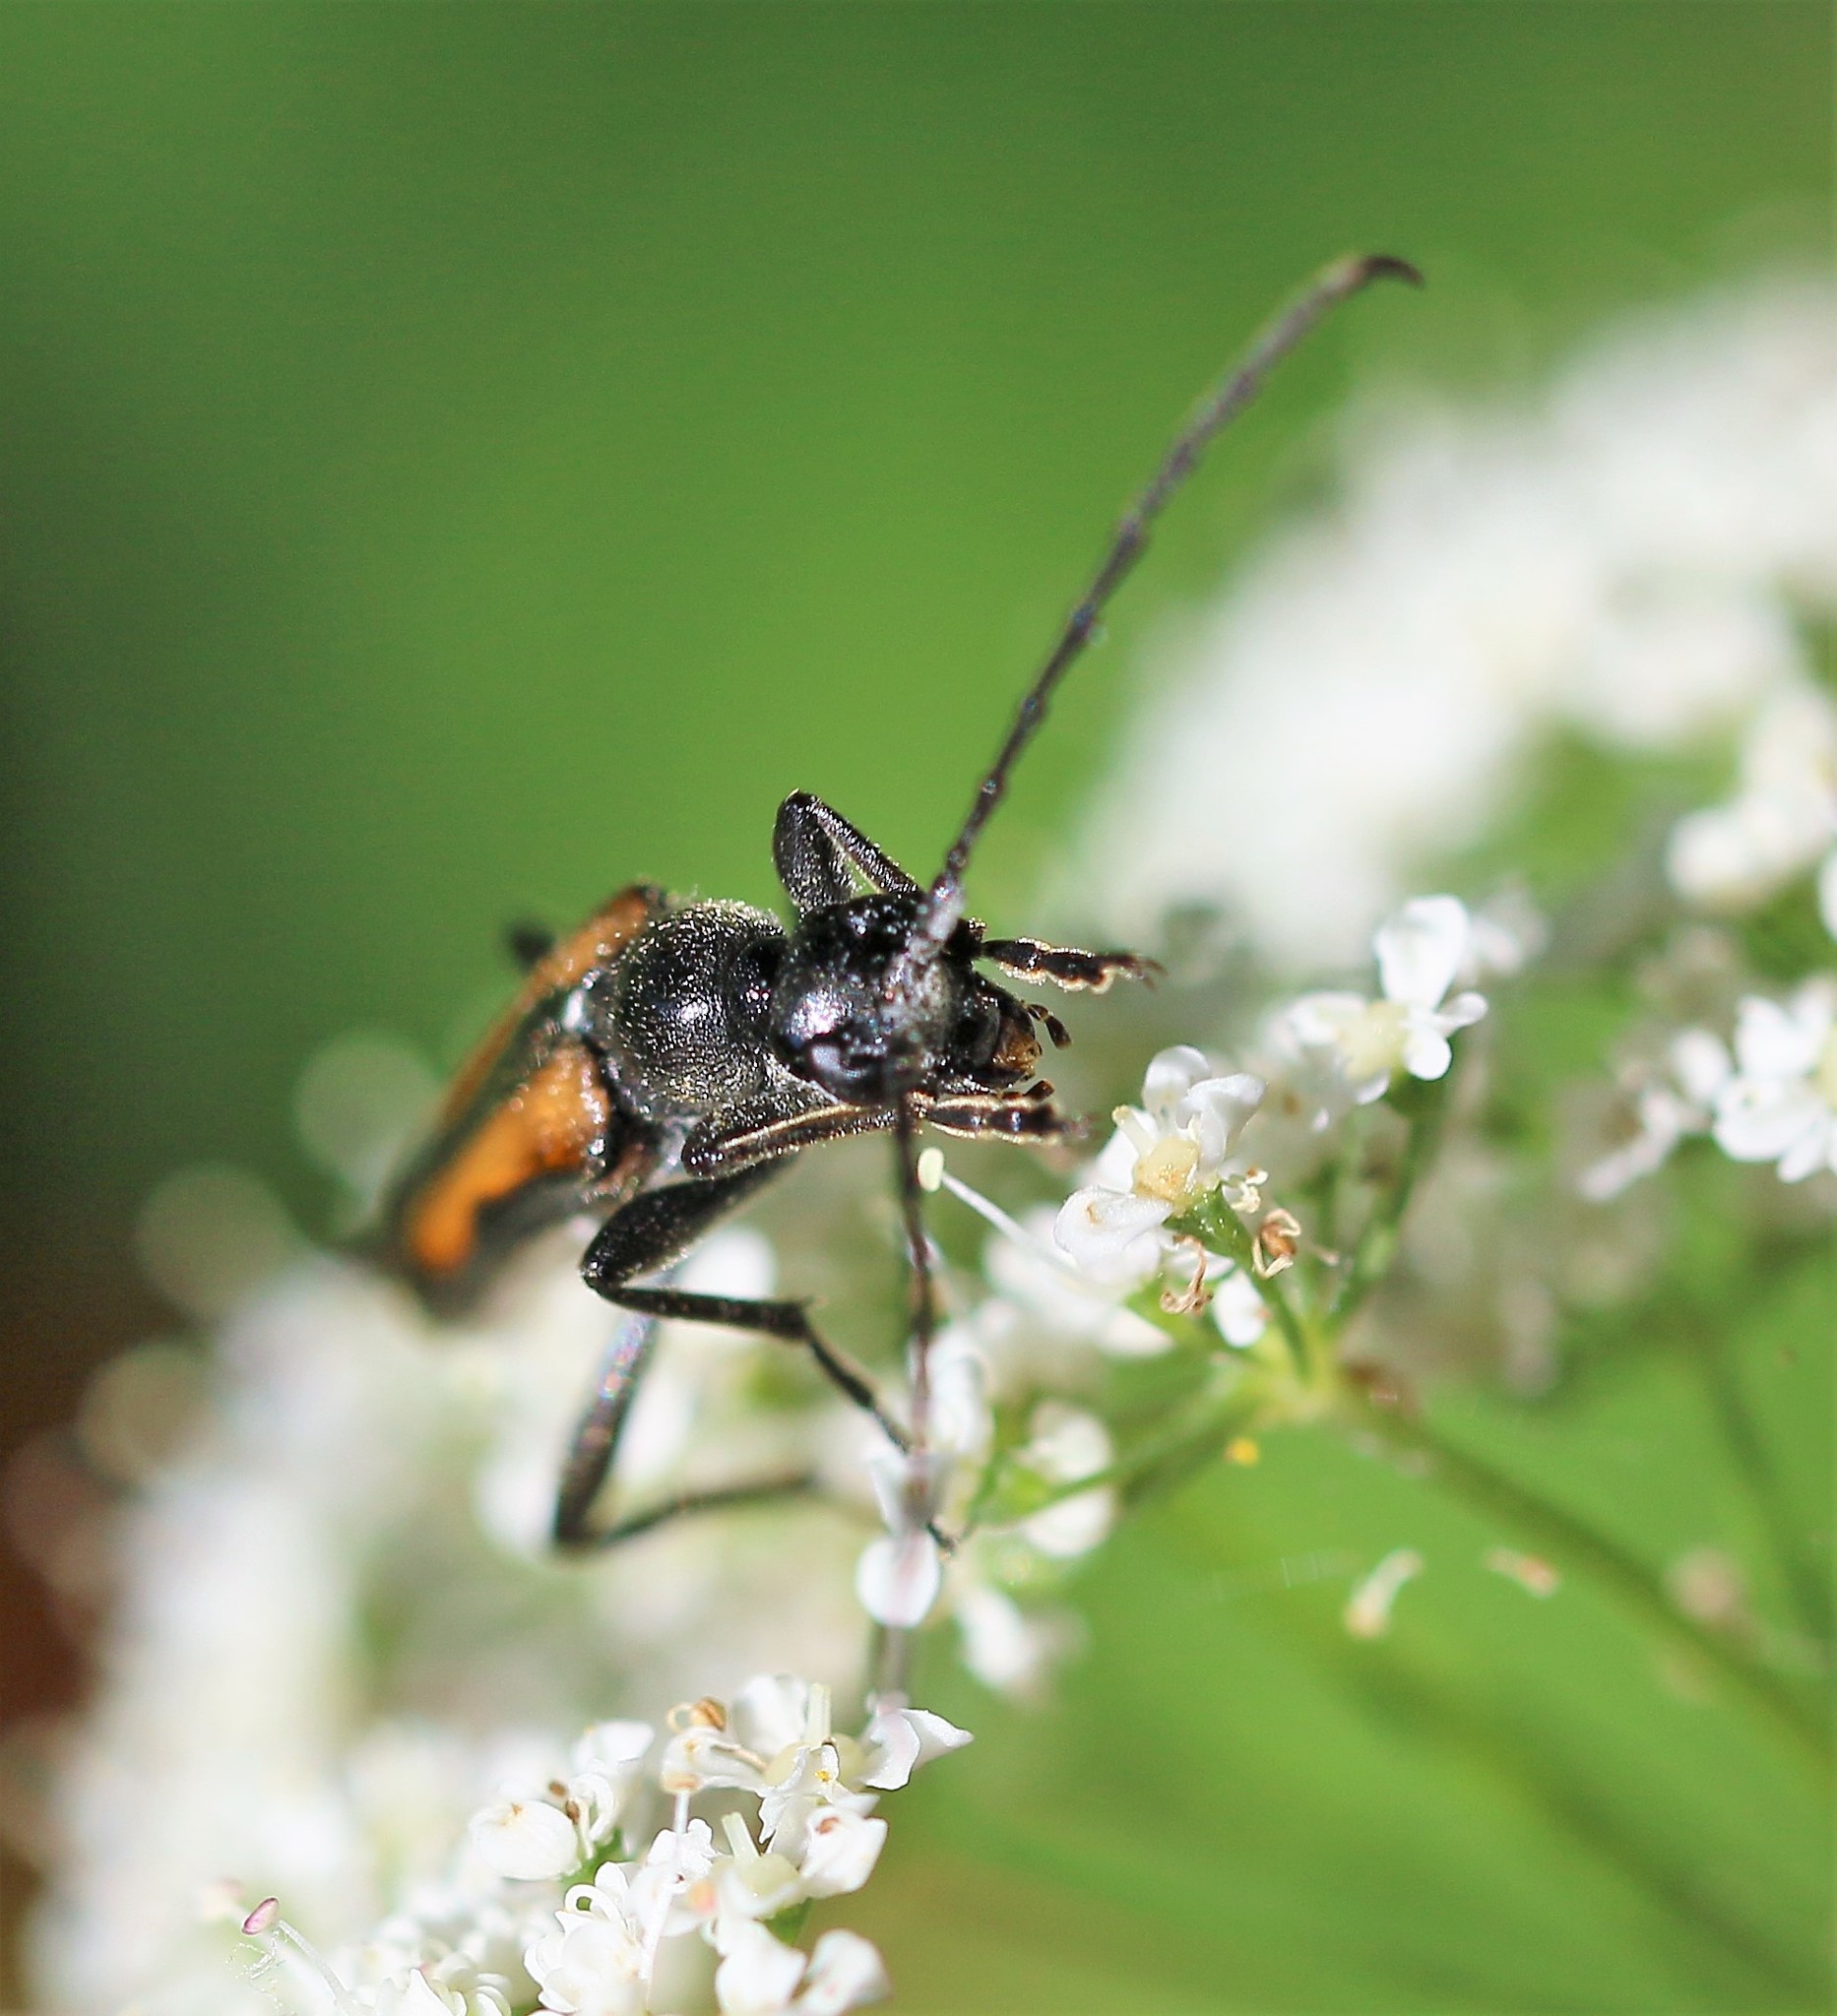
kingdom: Animalia
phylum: Arthropoda
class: Insecta
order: Coleoptera
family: Cerambycidae
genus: Strangalepta
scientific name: Strangalepta abbreviata
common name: Strangalepta flower longhorn beetle
